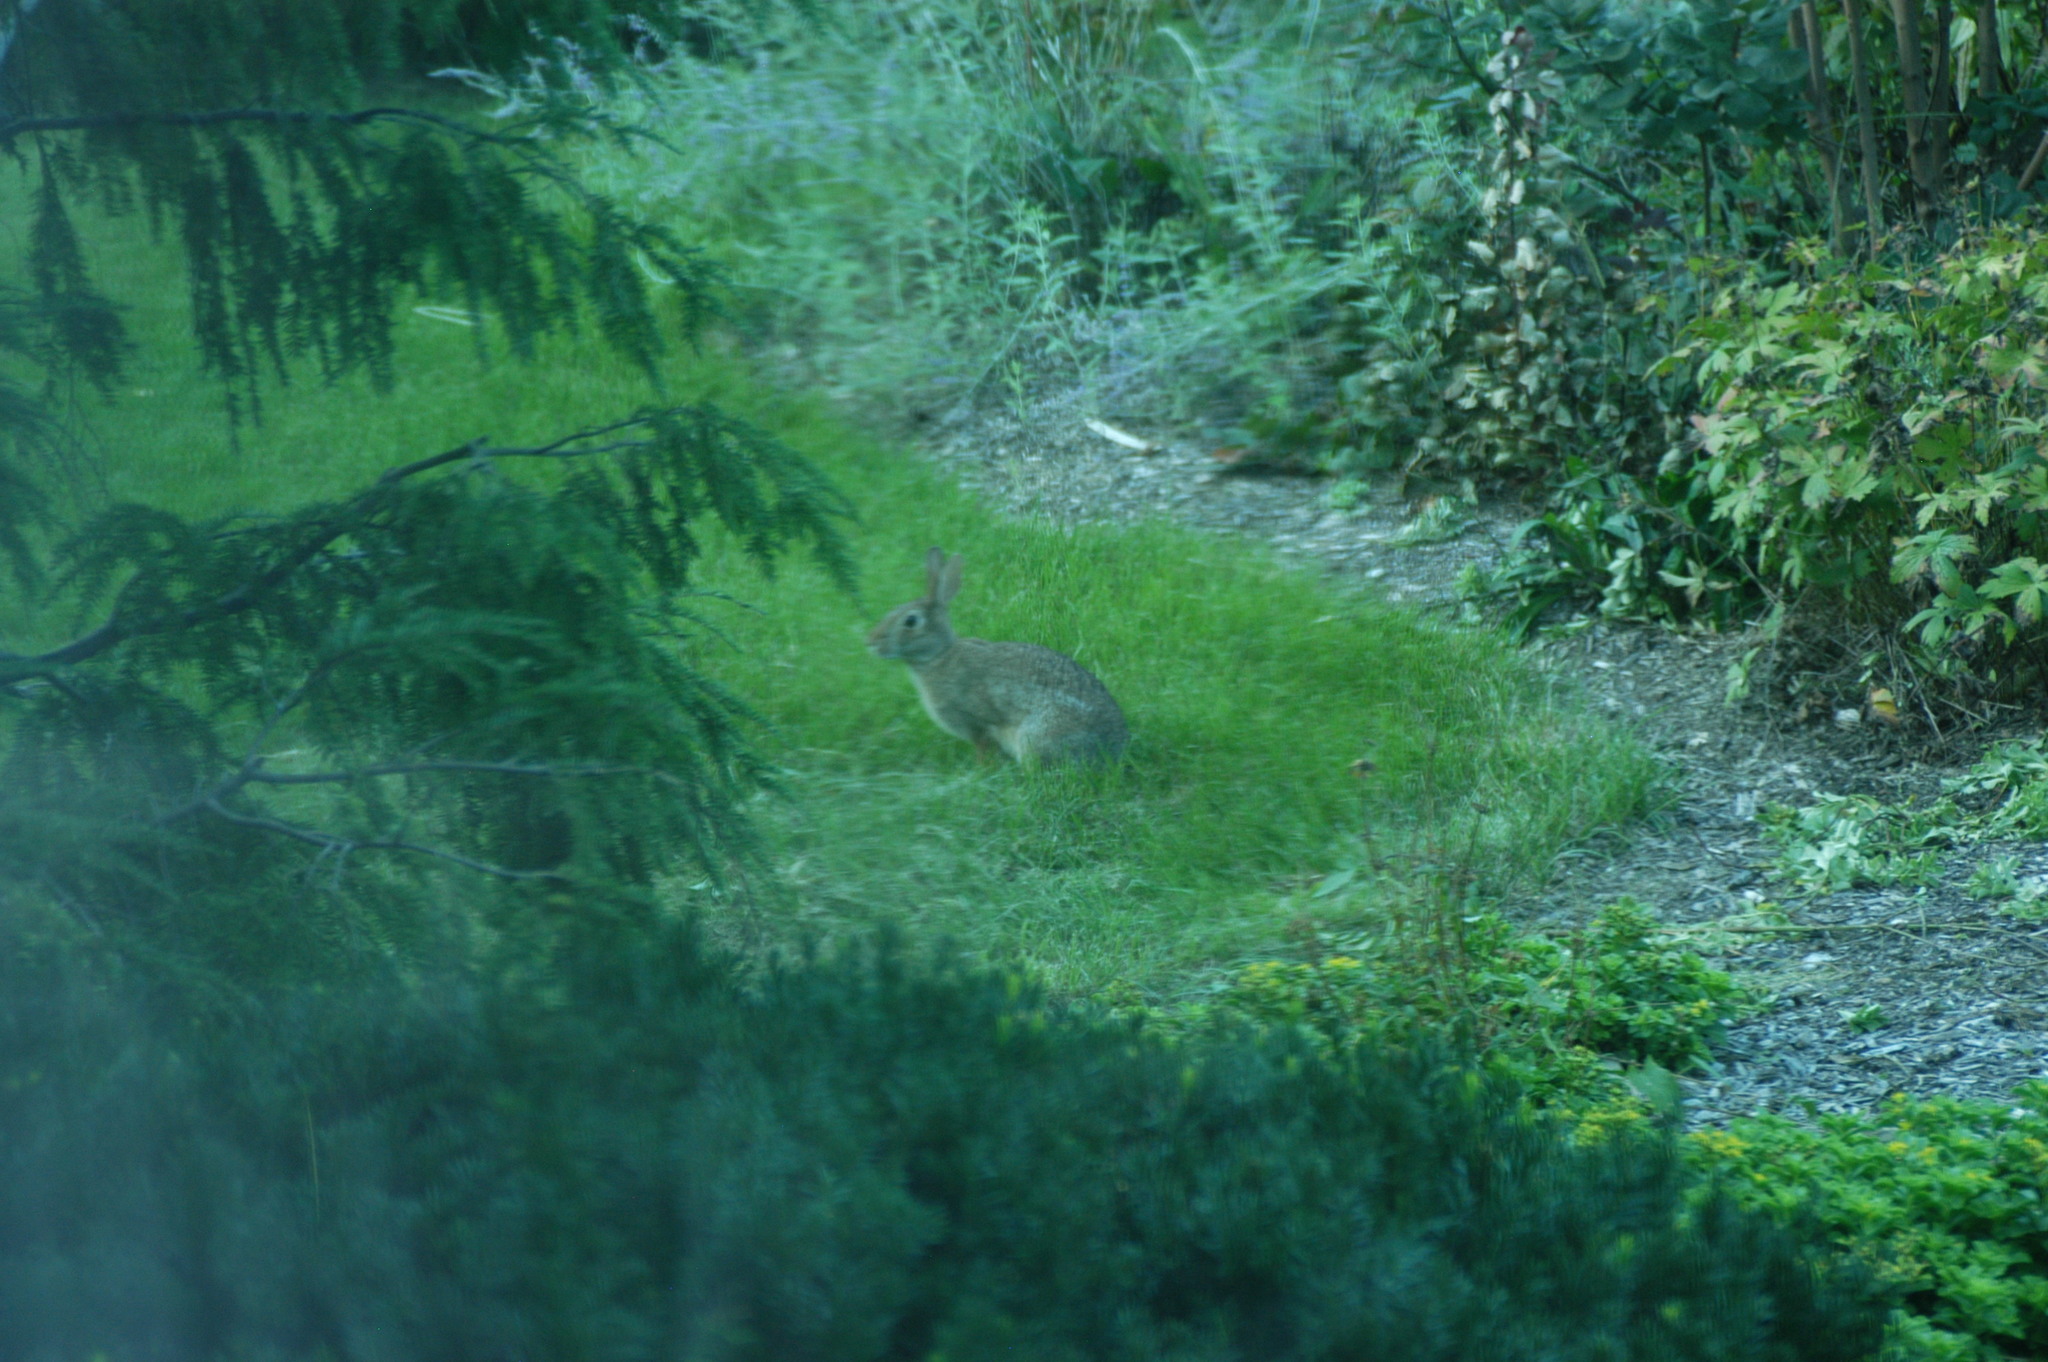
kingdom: Animalia
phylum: Chordata
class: Mammalia
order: Lagomorpha
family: Leporidae
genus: Sylvilagus
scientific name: Sylvilagus floridanus
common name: Eastern cottontail
